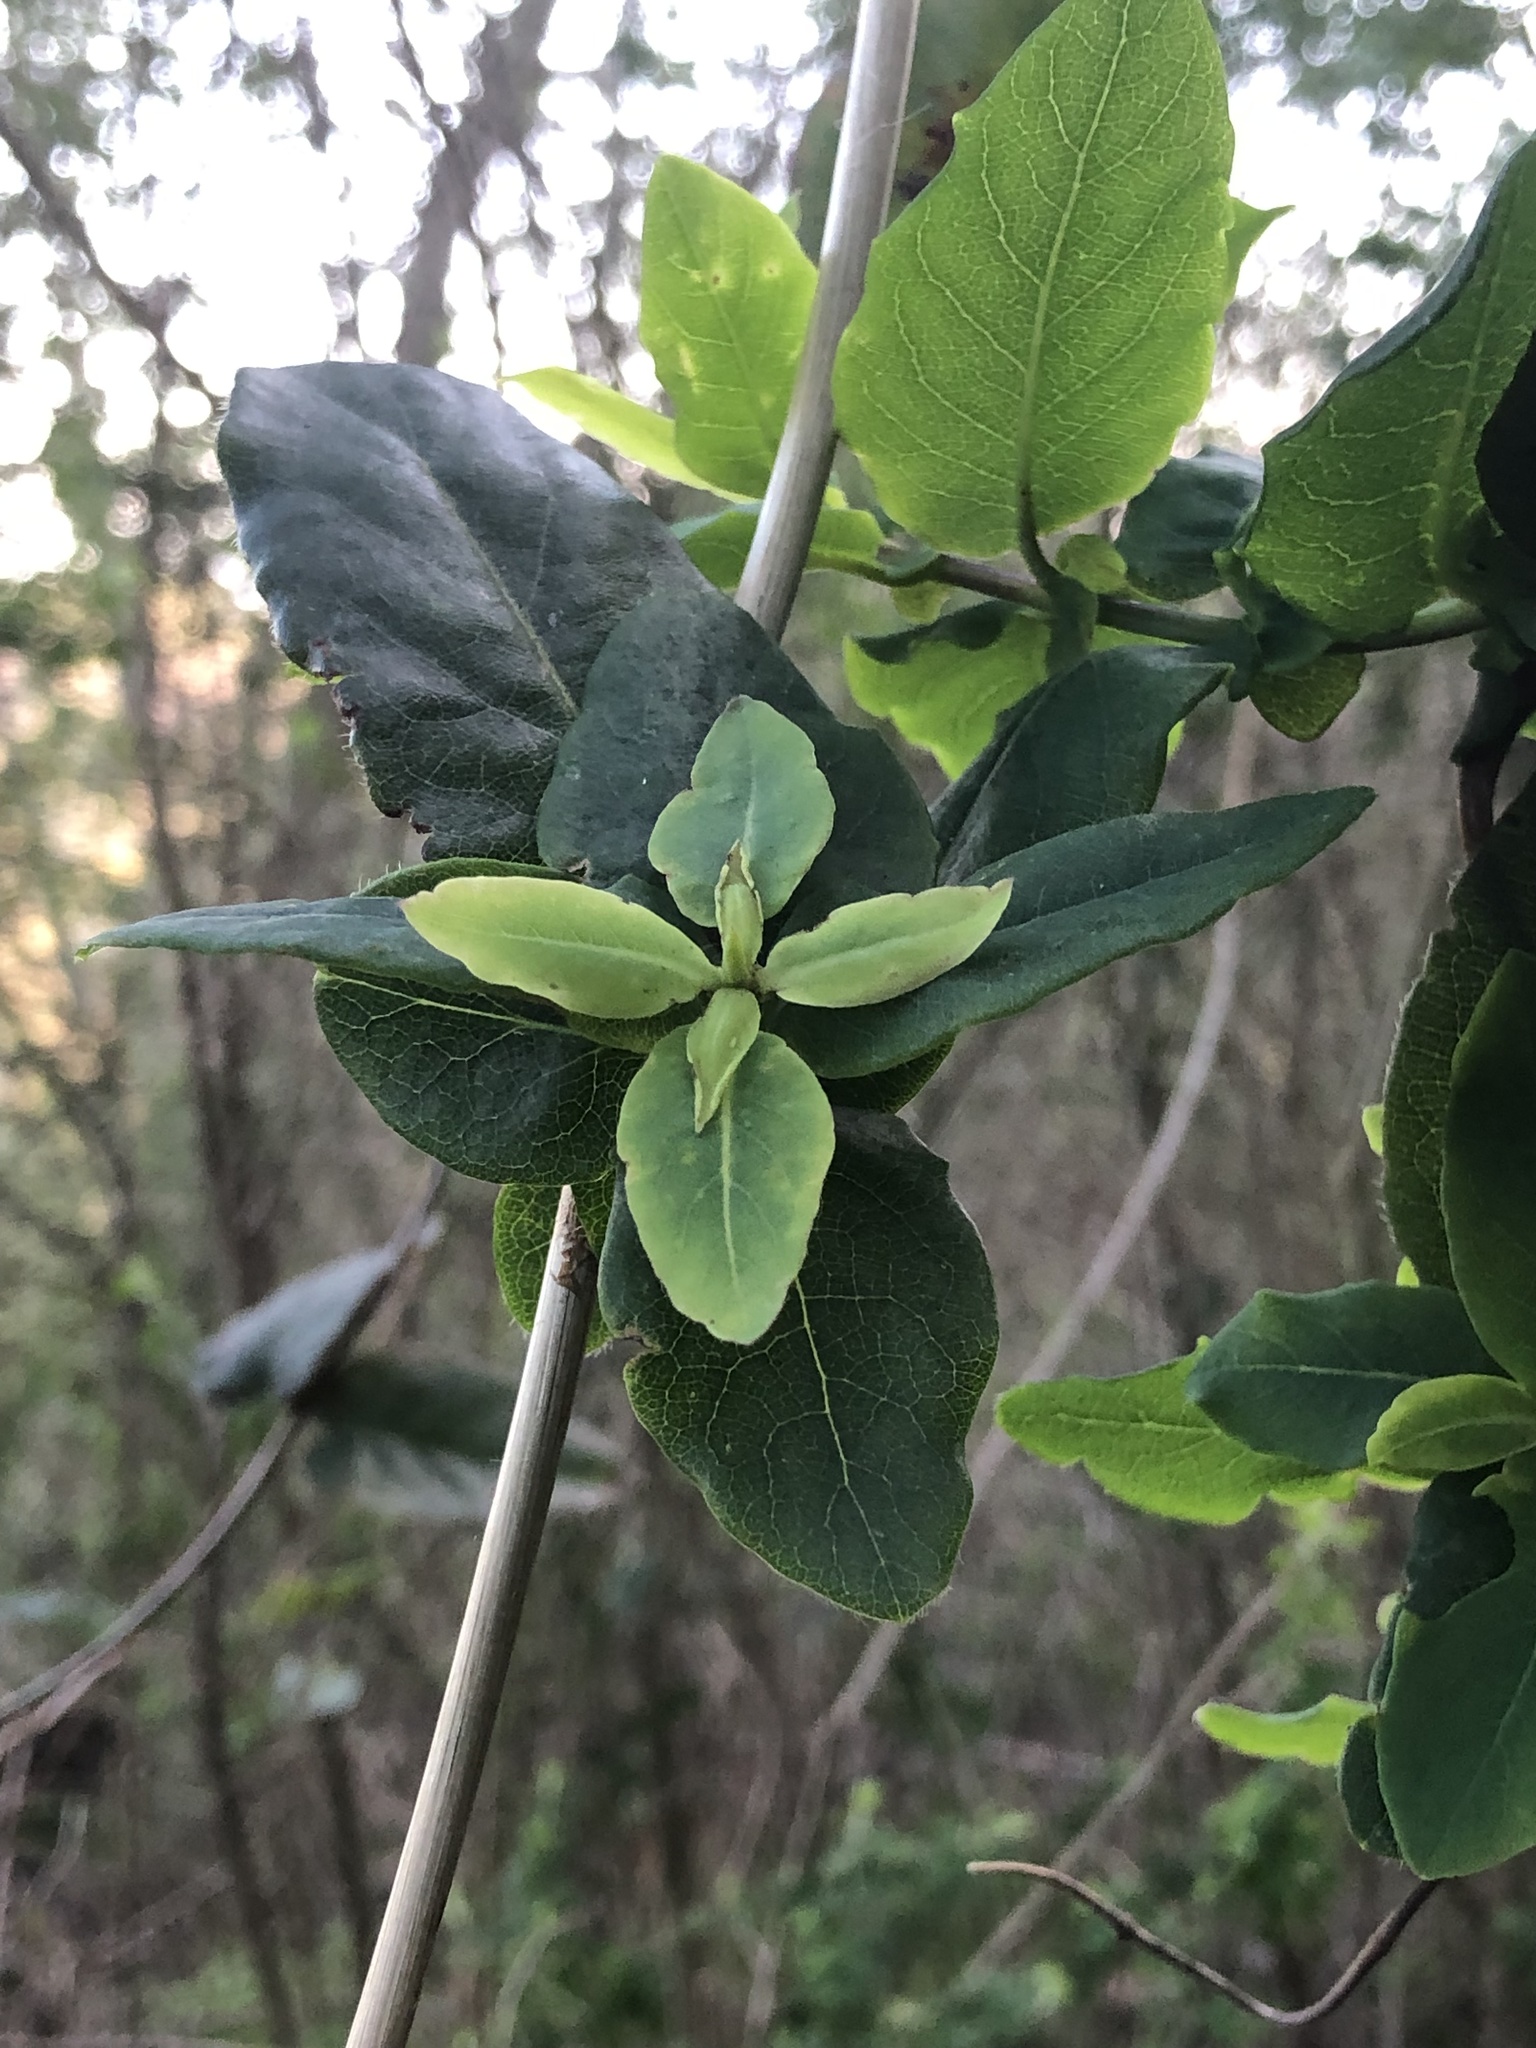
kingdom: Plantae
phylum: Tracheophyta
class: Magnoliopsida
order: Dipsacales
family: Caprifoliaceae
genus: Lonicera
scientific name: Lonicera hispidula
